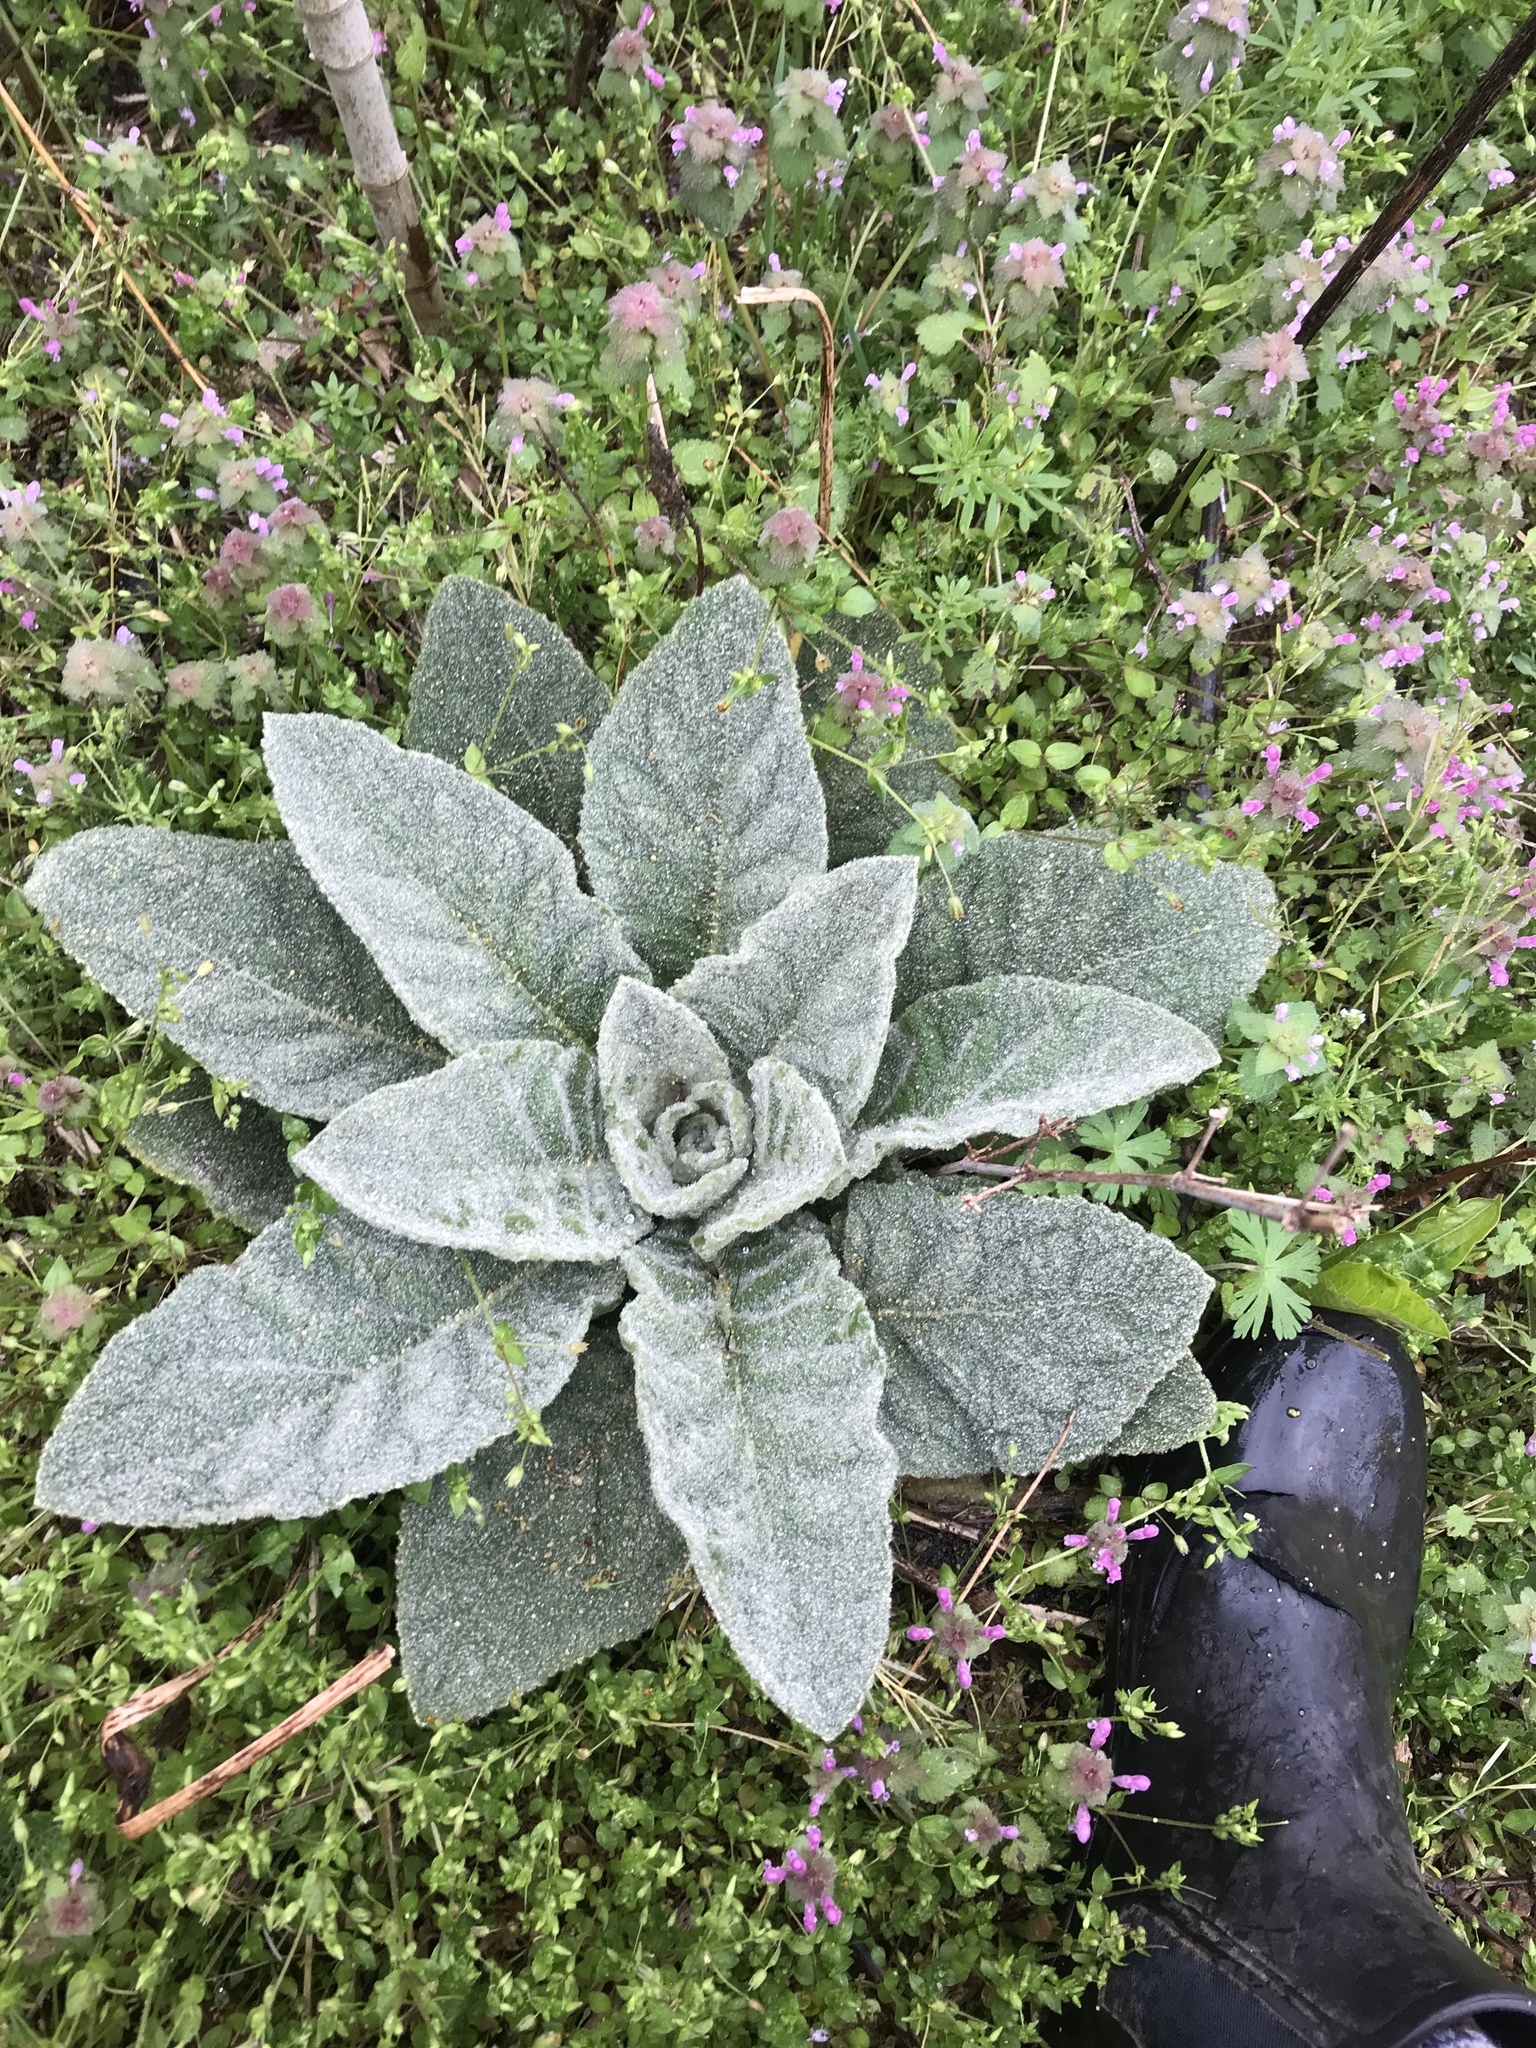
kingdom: Plantae
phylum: Tracheophyta
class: Magnoliopsida
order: Lamiales
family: Scrophulariaceae
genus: Verbascum
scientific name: Verbascum thapsus
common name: Common mullein
